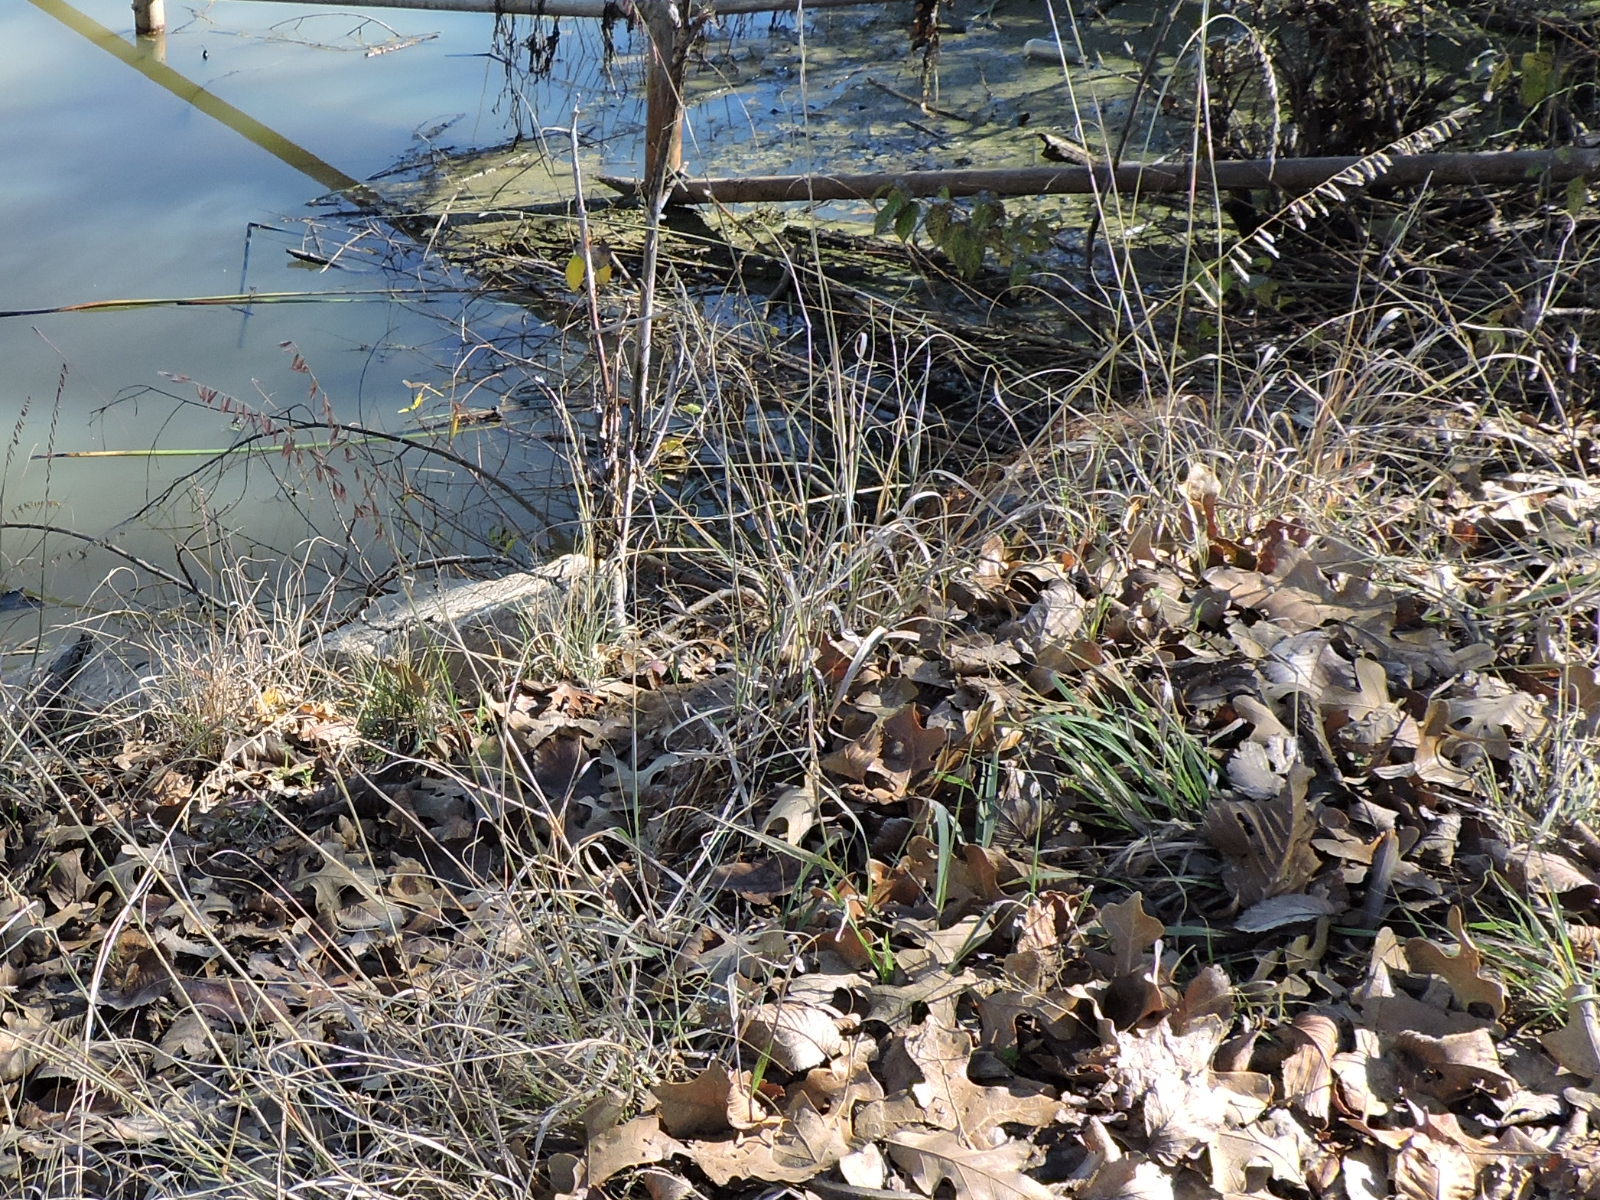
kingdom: Plantae
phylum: Tracheophyta
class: Liliopsida
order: Poales
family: Poaceae
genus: Bouteloua
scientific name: Bouteloua curtipendula
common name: Side-oats grama
